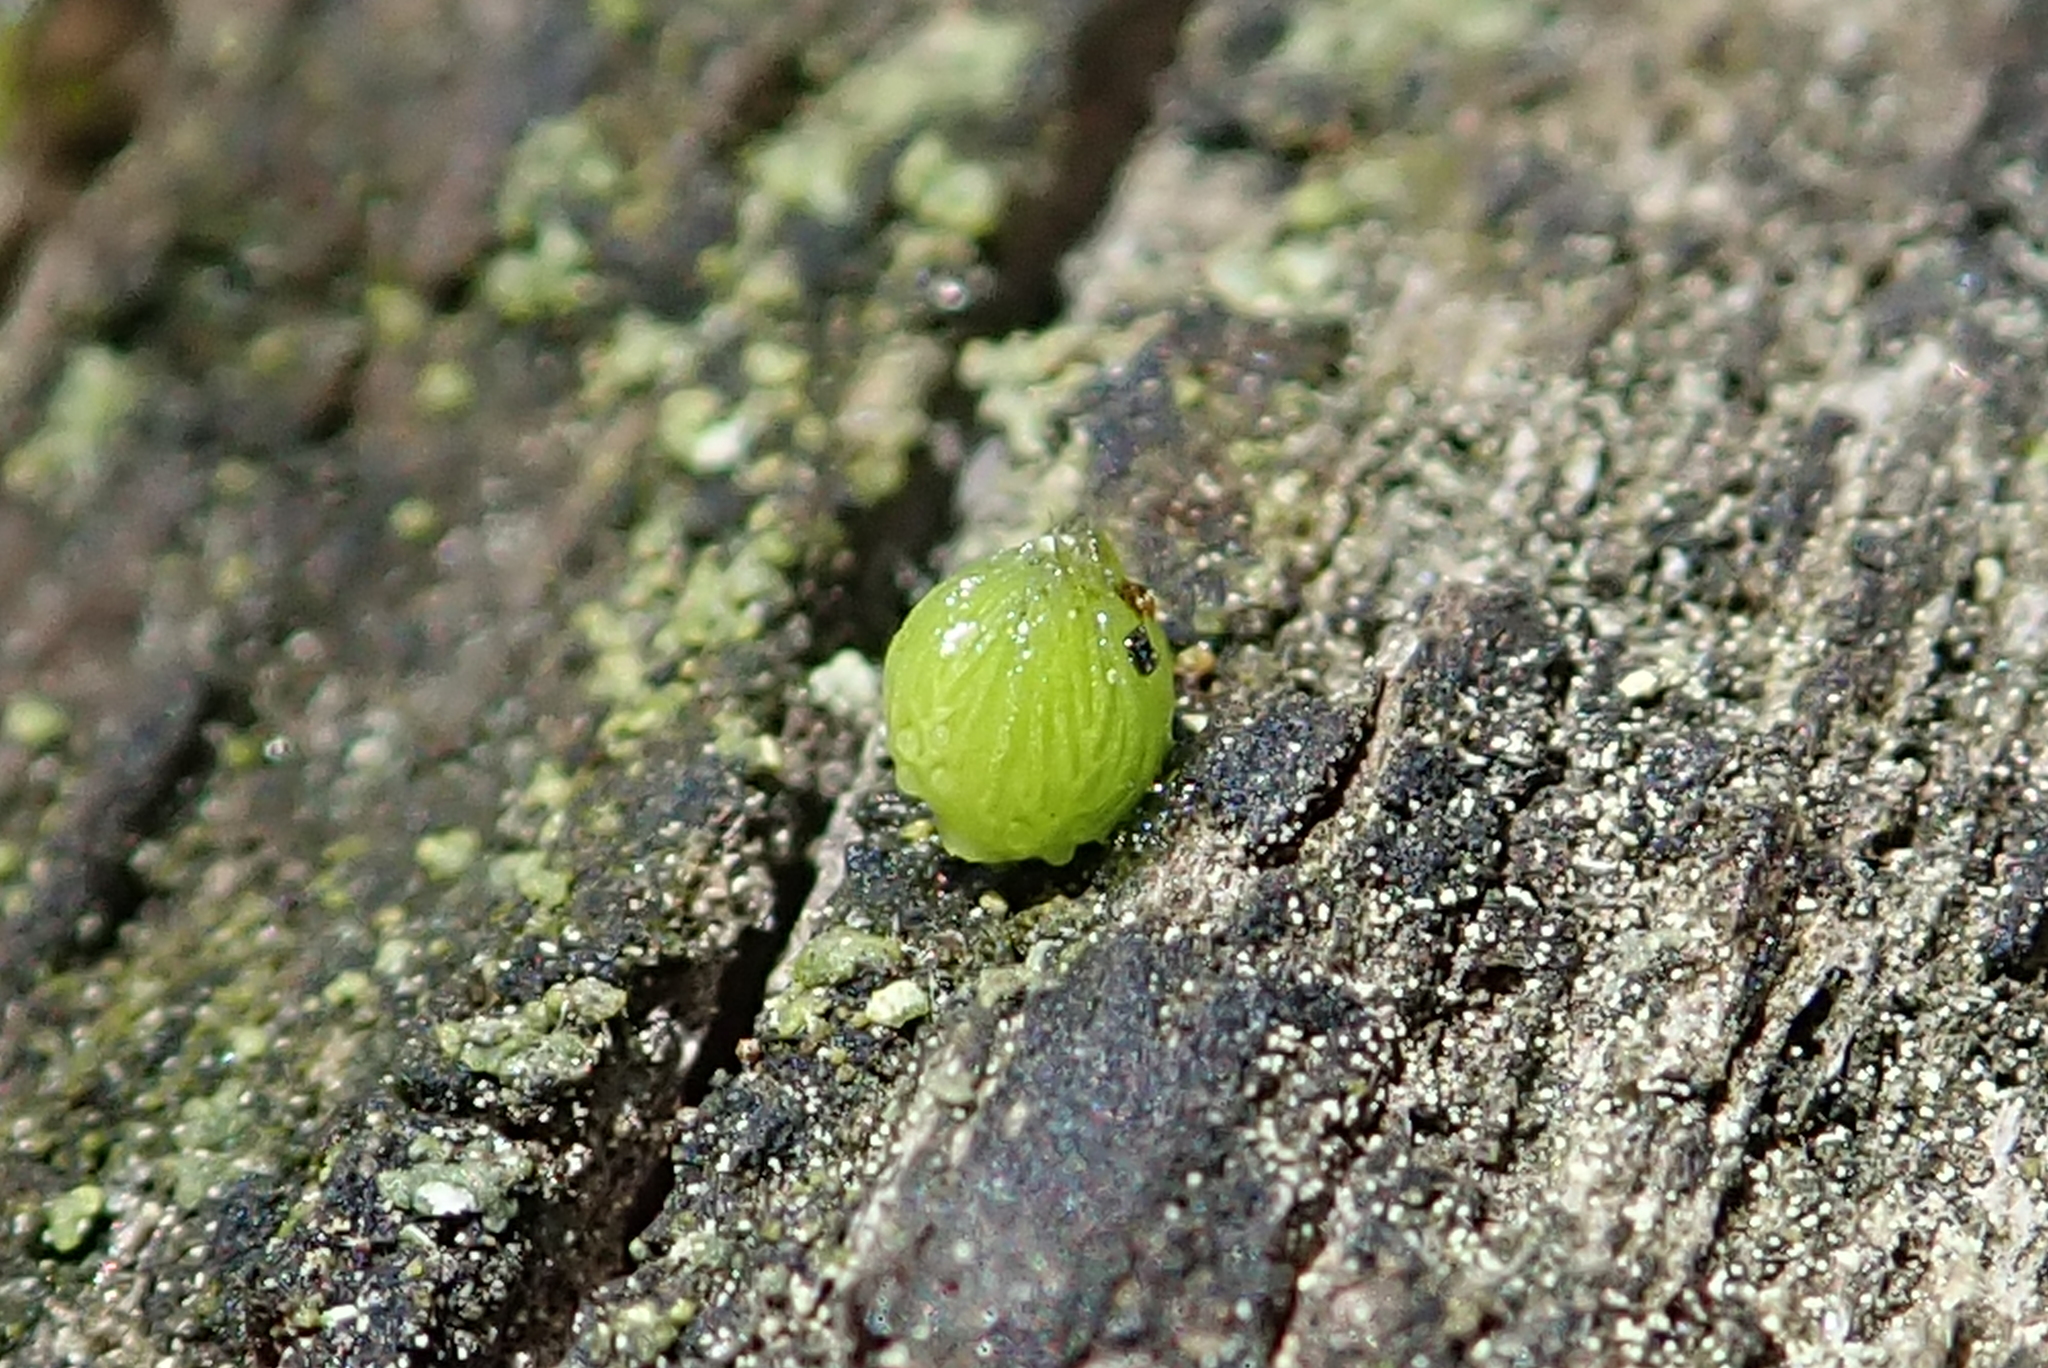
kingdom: Plantae
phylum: Tracheophyta
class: Magnoliopsida
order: Lamiales
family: Lentibulariaceae
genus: Utricularia
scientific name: Utricularia macrorhiza
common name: Common bladderwort
